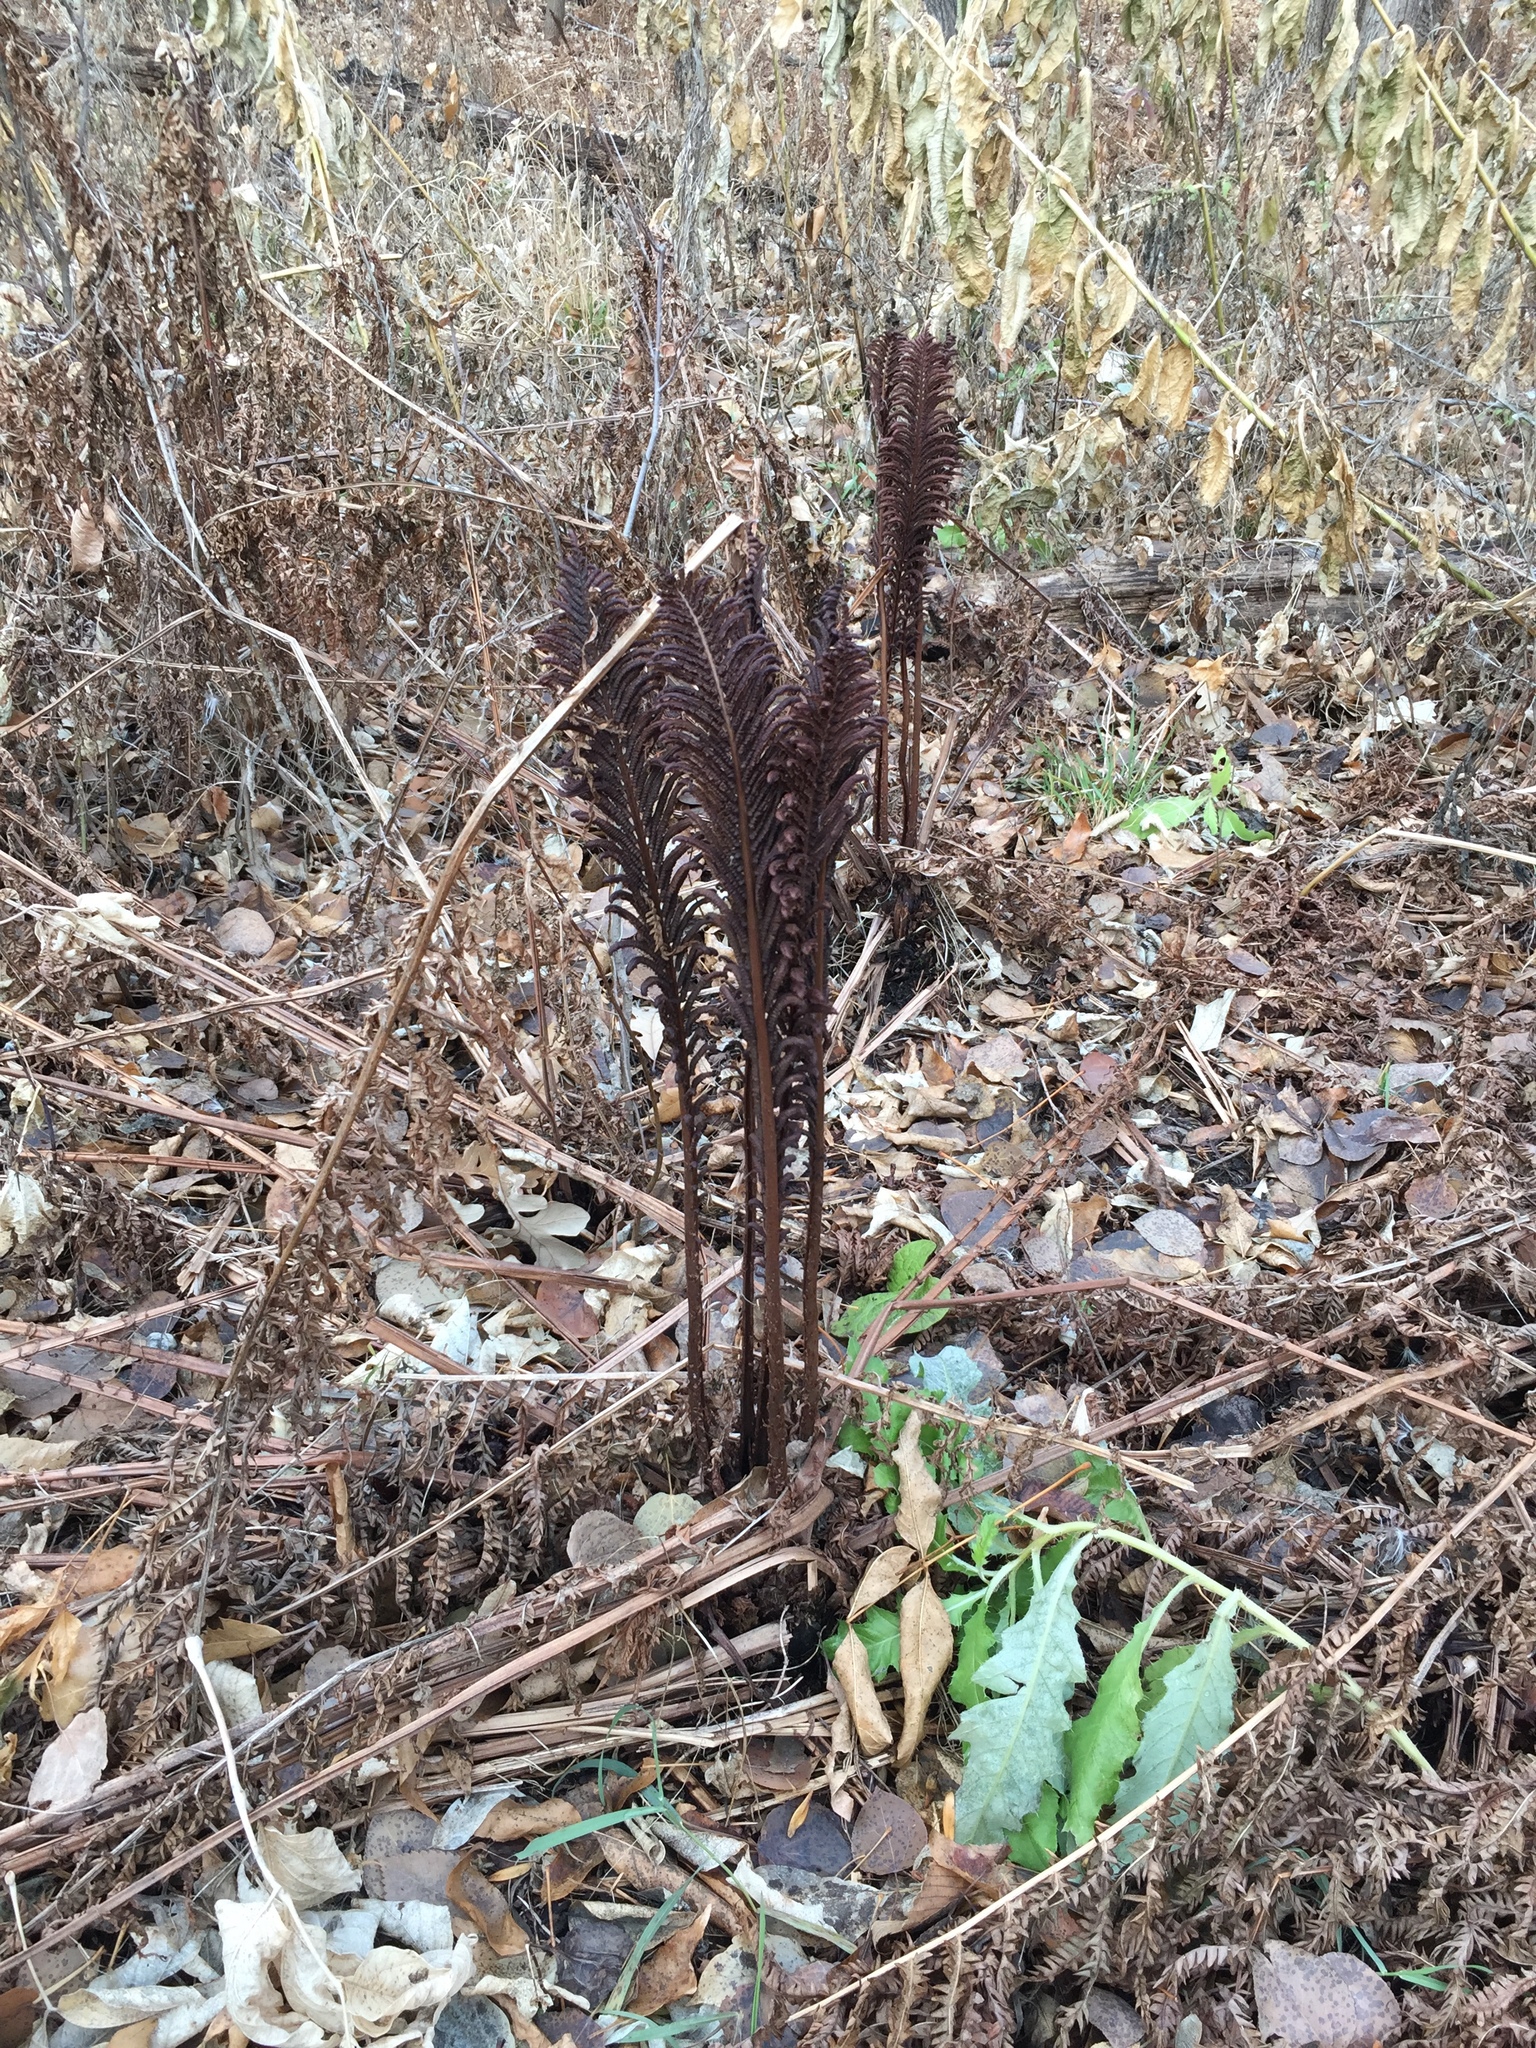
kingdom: Plantae
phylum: Tracheophyta
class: Polypodiopsida
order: Polypodiales
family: Onocleaceae
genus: Matteuccia
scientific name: Matteuccia struthiopteris
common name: Ostrich fern
